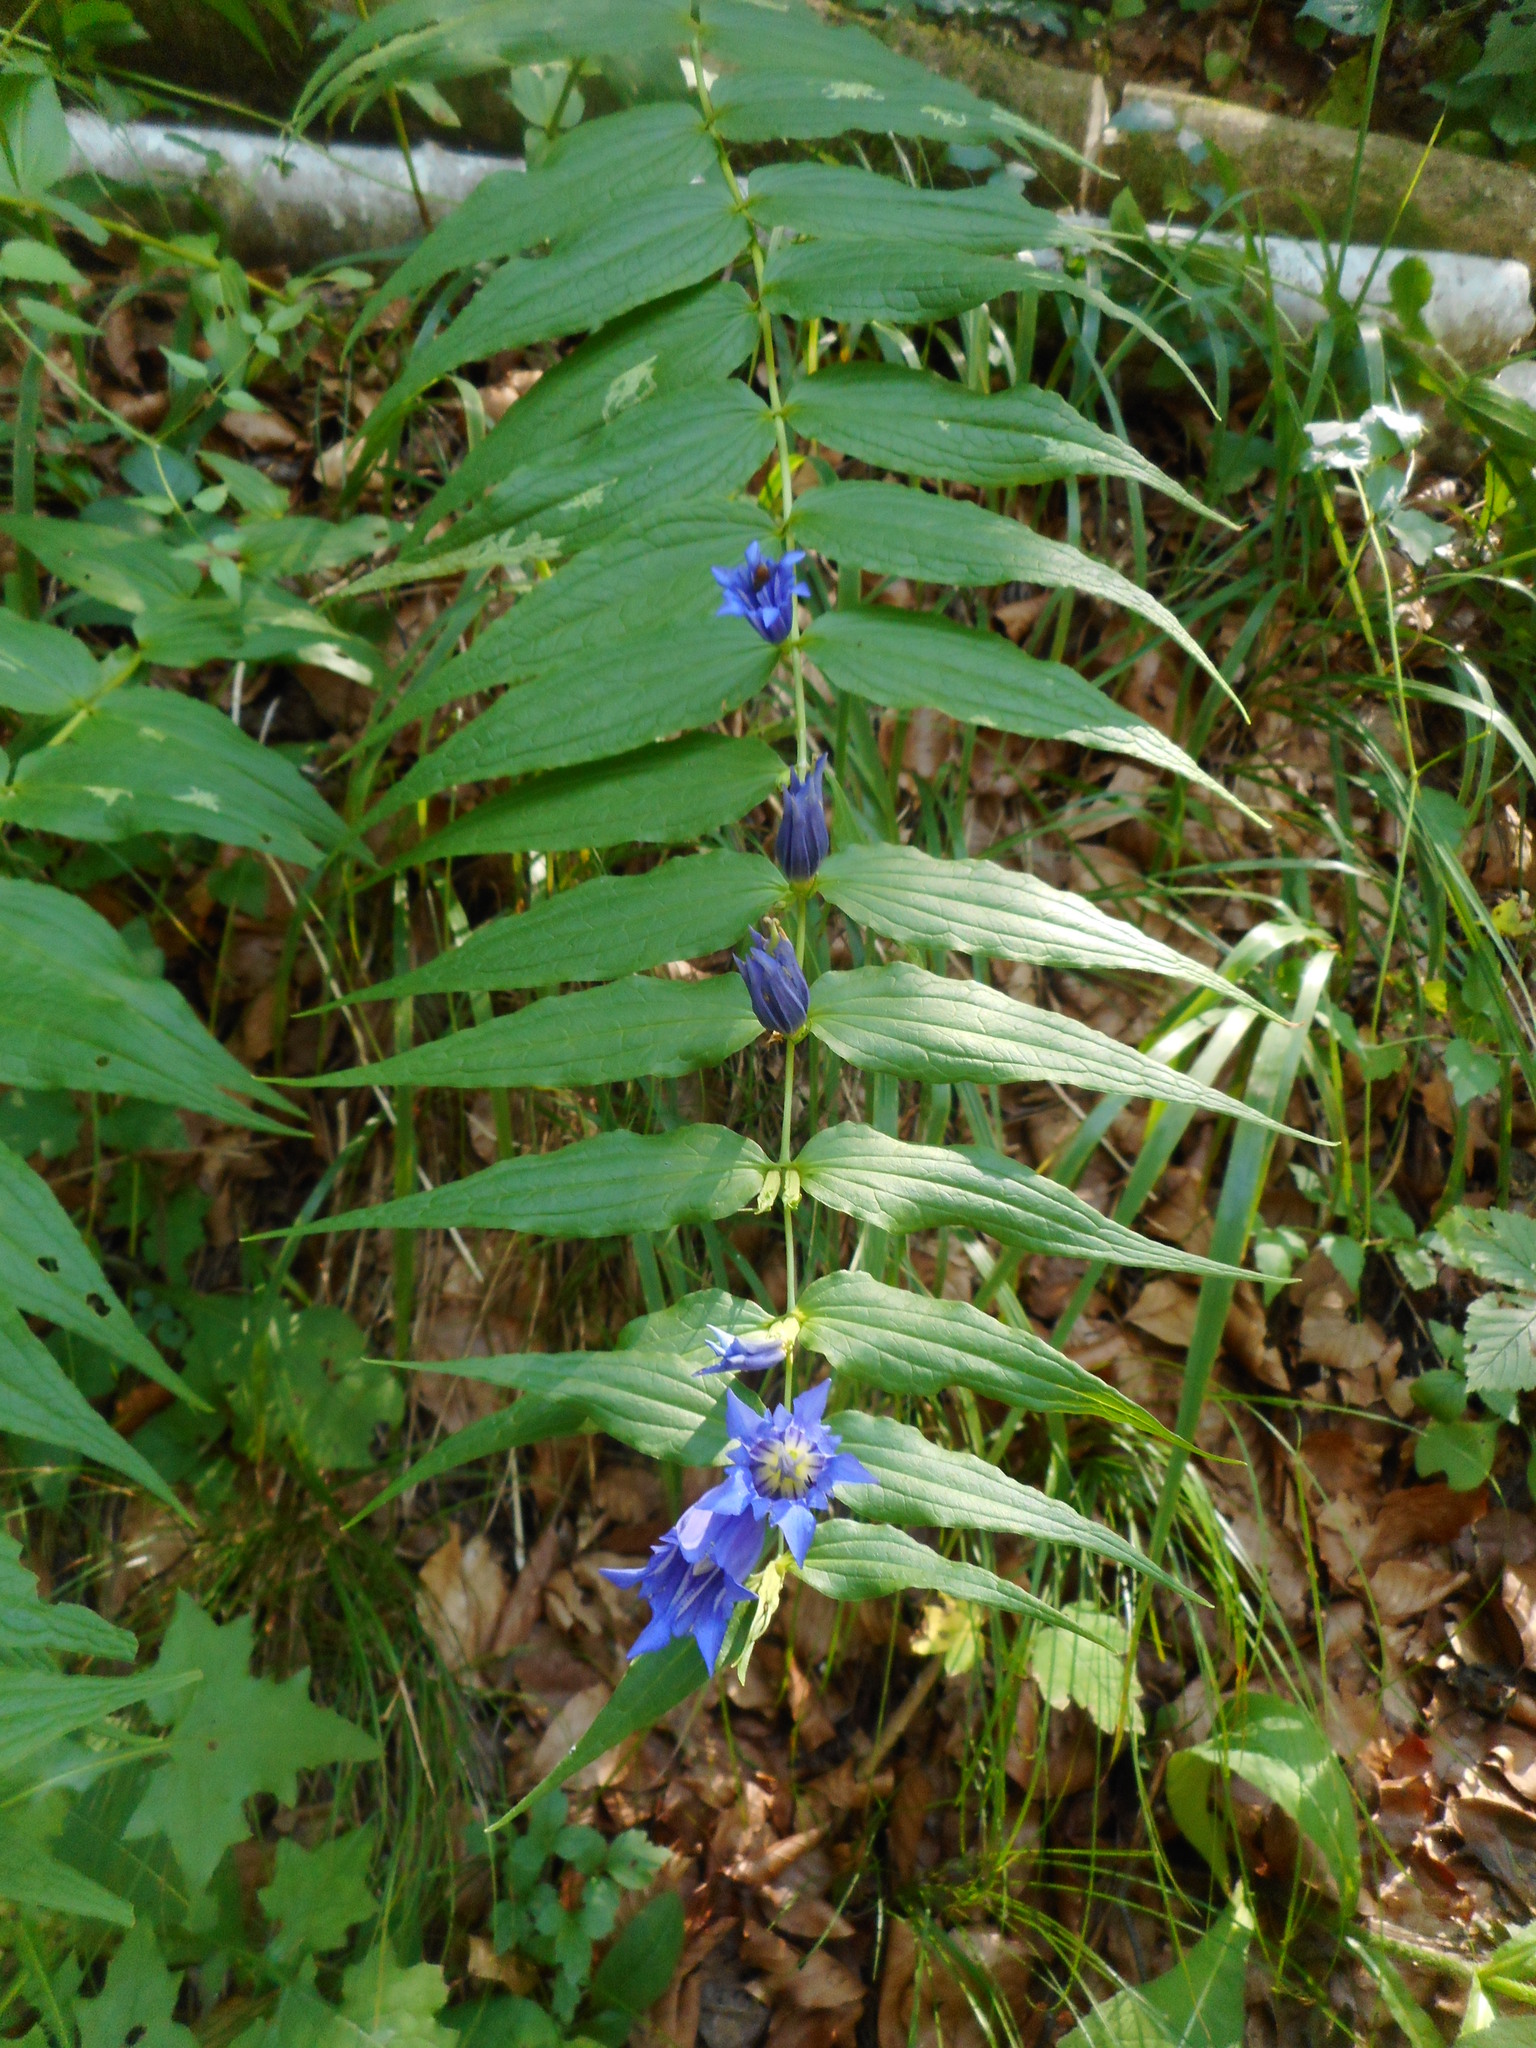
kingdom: Plantae
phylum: Tracheophyta
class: Magnoliopsida
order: Gentianales
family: Gentianaceae
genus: Gentiana
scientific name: Gentiana asclepiadea
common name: Willow gentian
